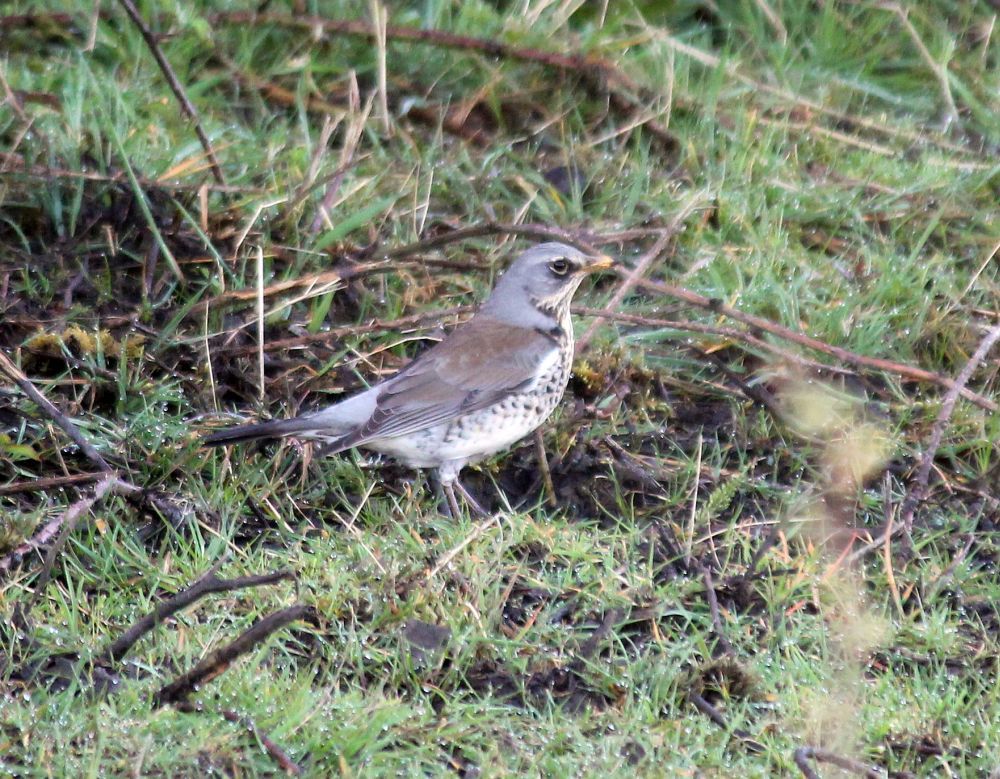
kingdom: Animalia
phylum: Chordata
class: Aves
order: Passeriformes
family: Turdidae
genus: Turdus
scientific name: Turdus pilaris
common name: Fieldfare
